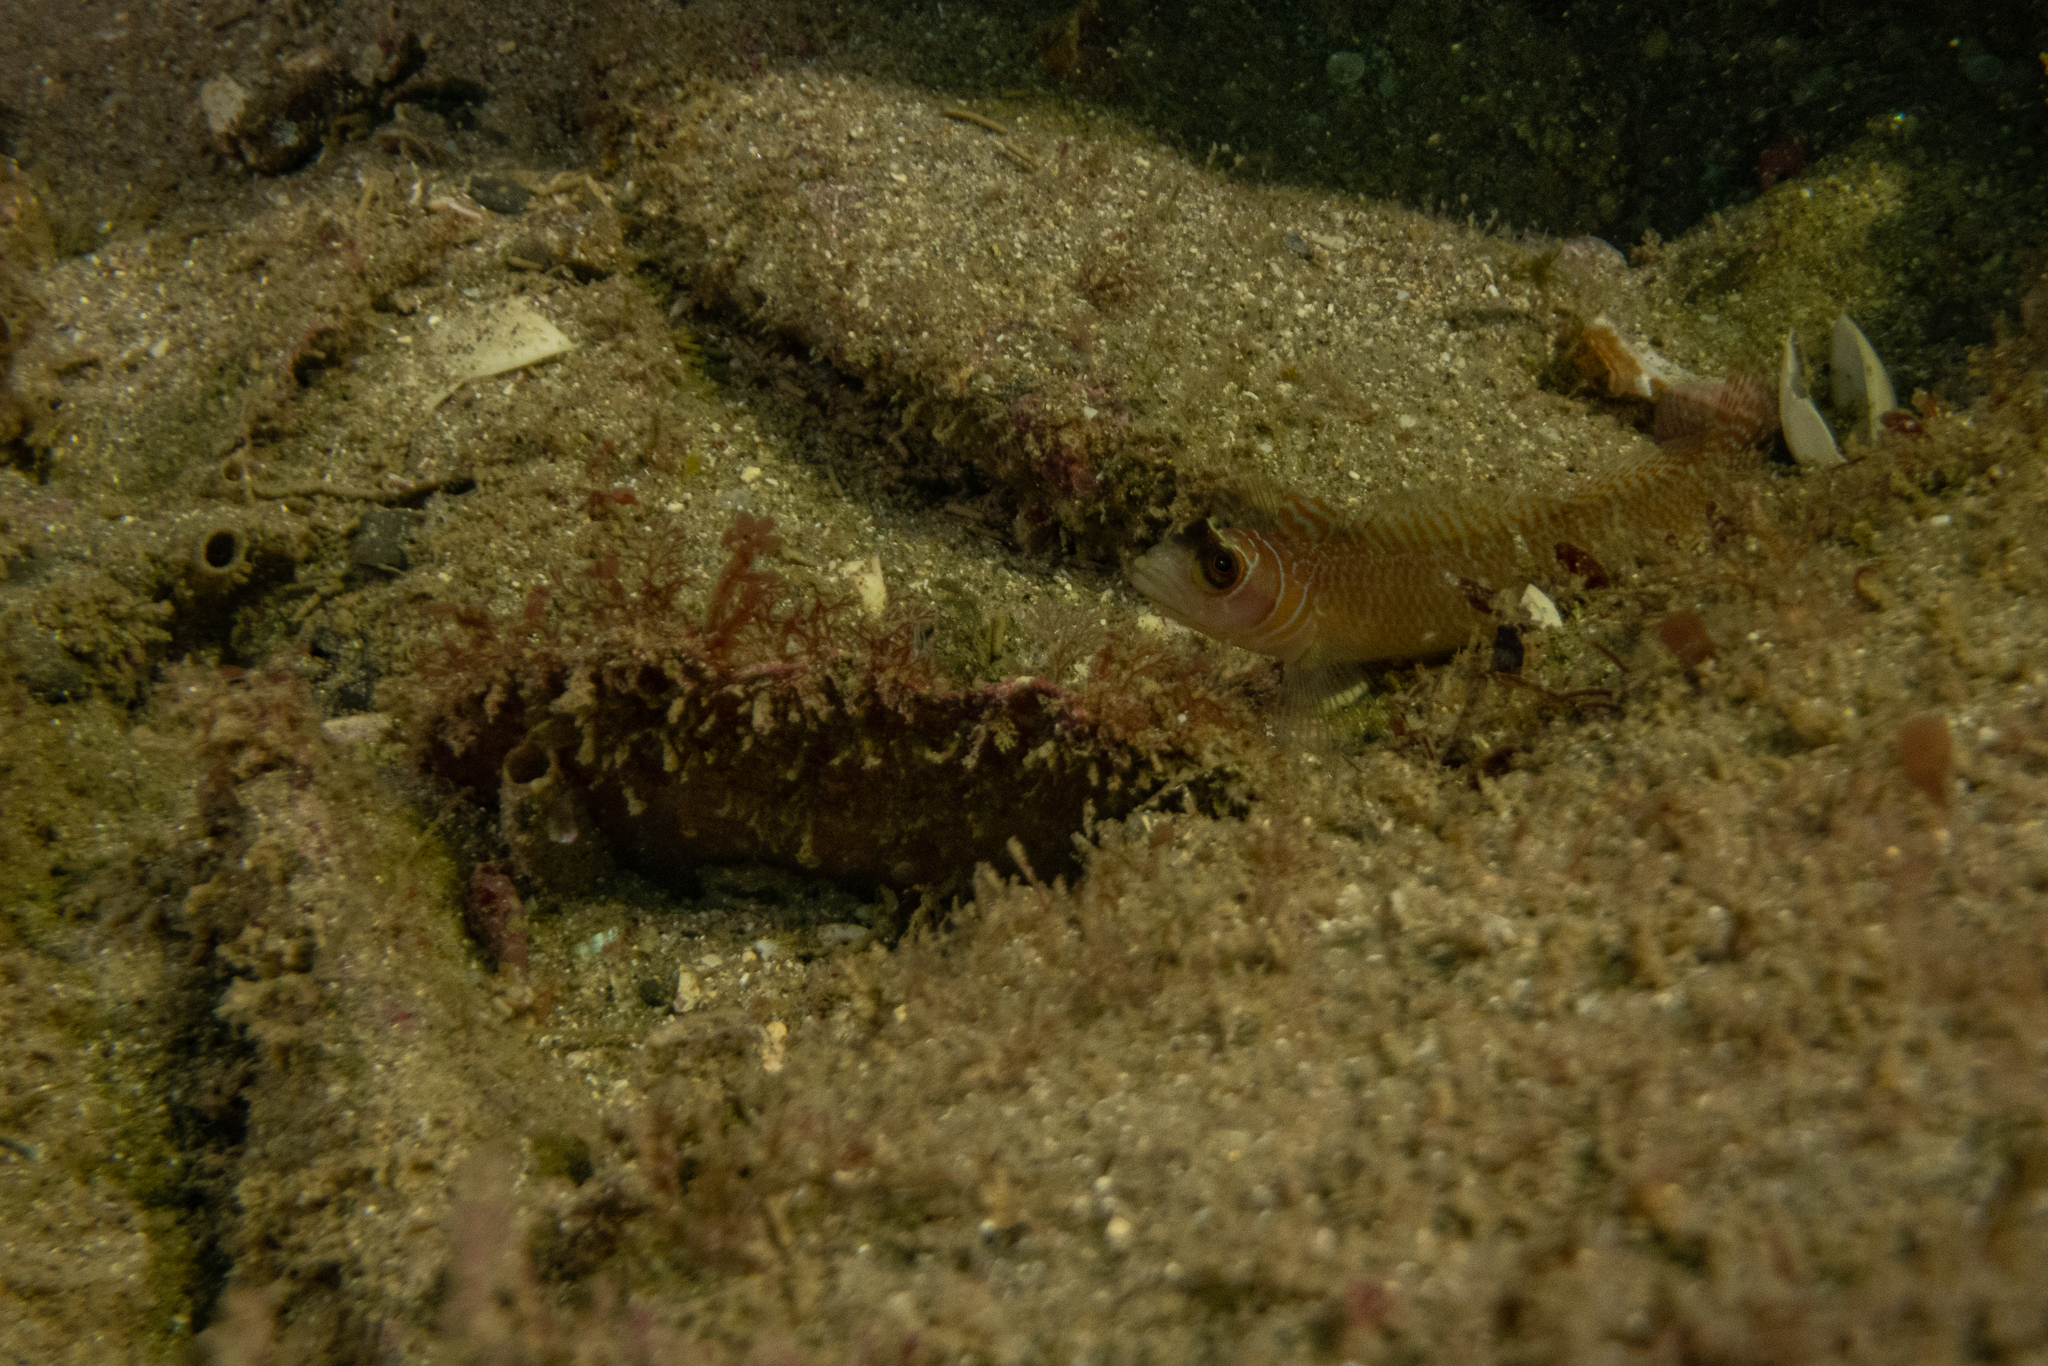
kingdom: Animalia
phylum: Chordata
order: Perciformes
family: Tripterygiidae
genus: Ruanoho
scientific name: Ruanoho whero
